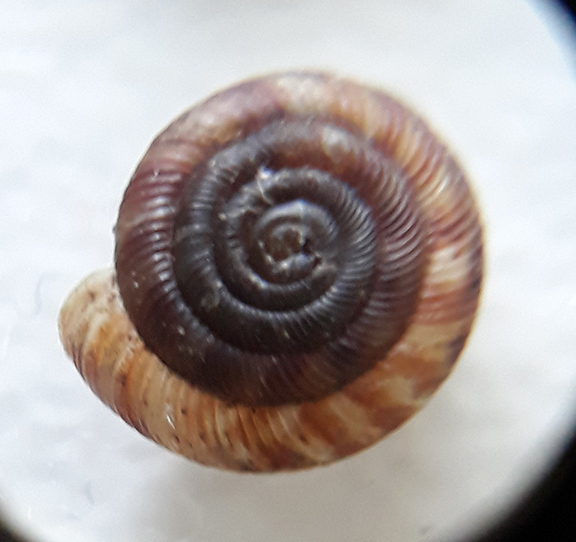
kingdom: Animalia
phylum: Mollusca
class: Gastropoda
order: Stylommatophora
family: Discidae
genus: Discus
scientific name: Discus rotundatus
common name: Rounded snail
